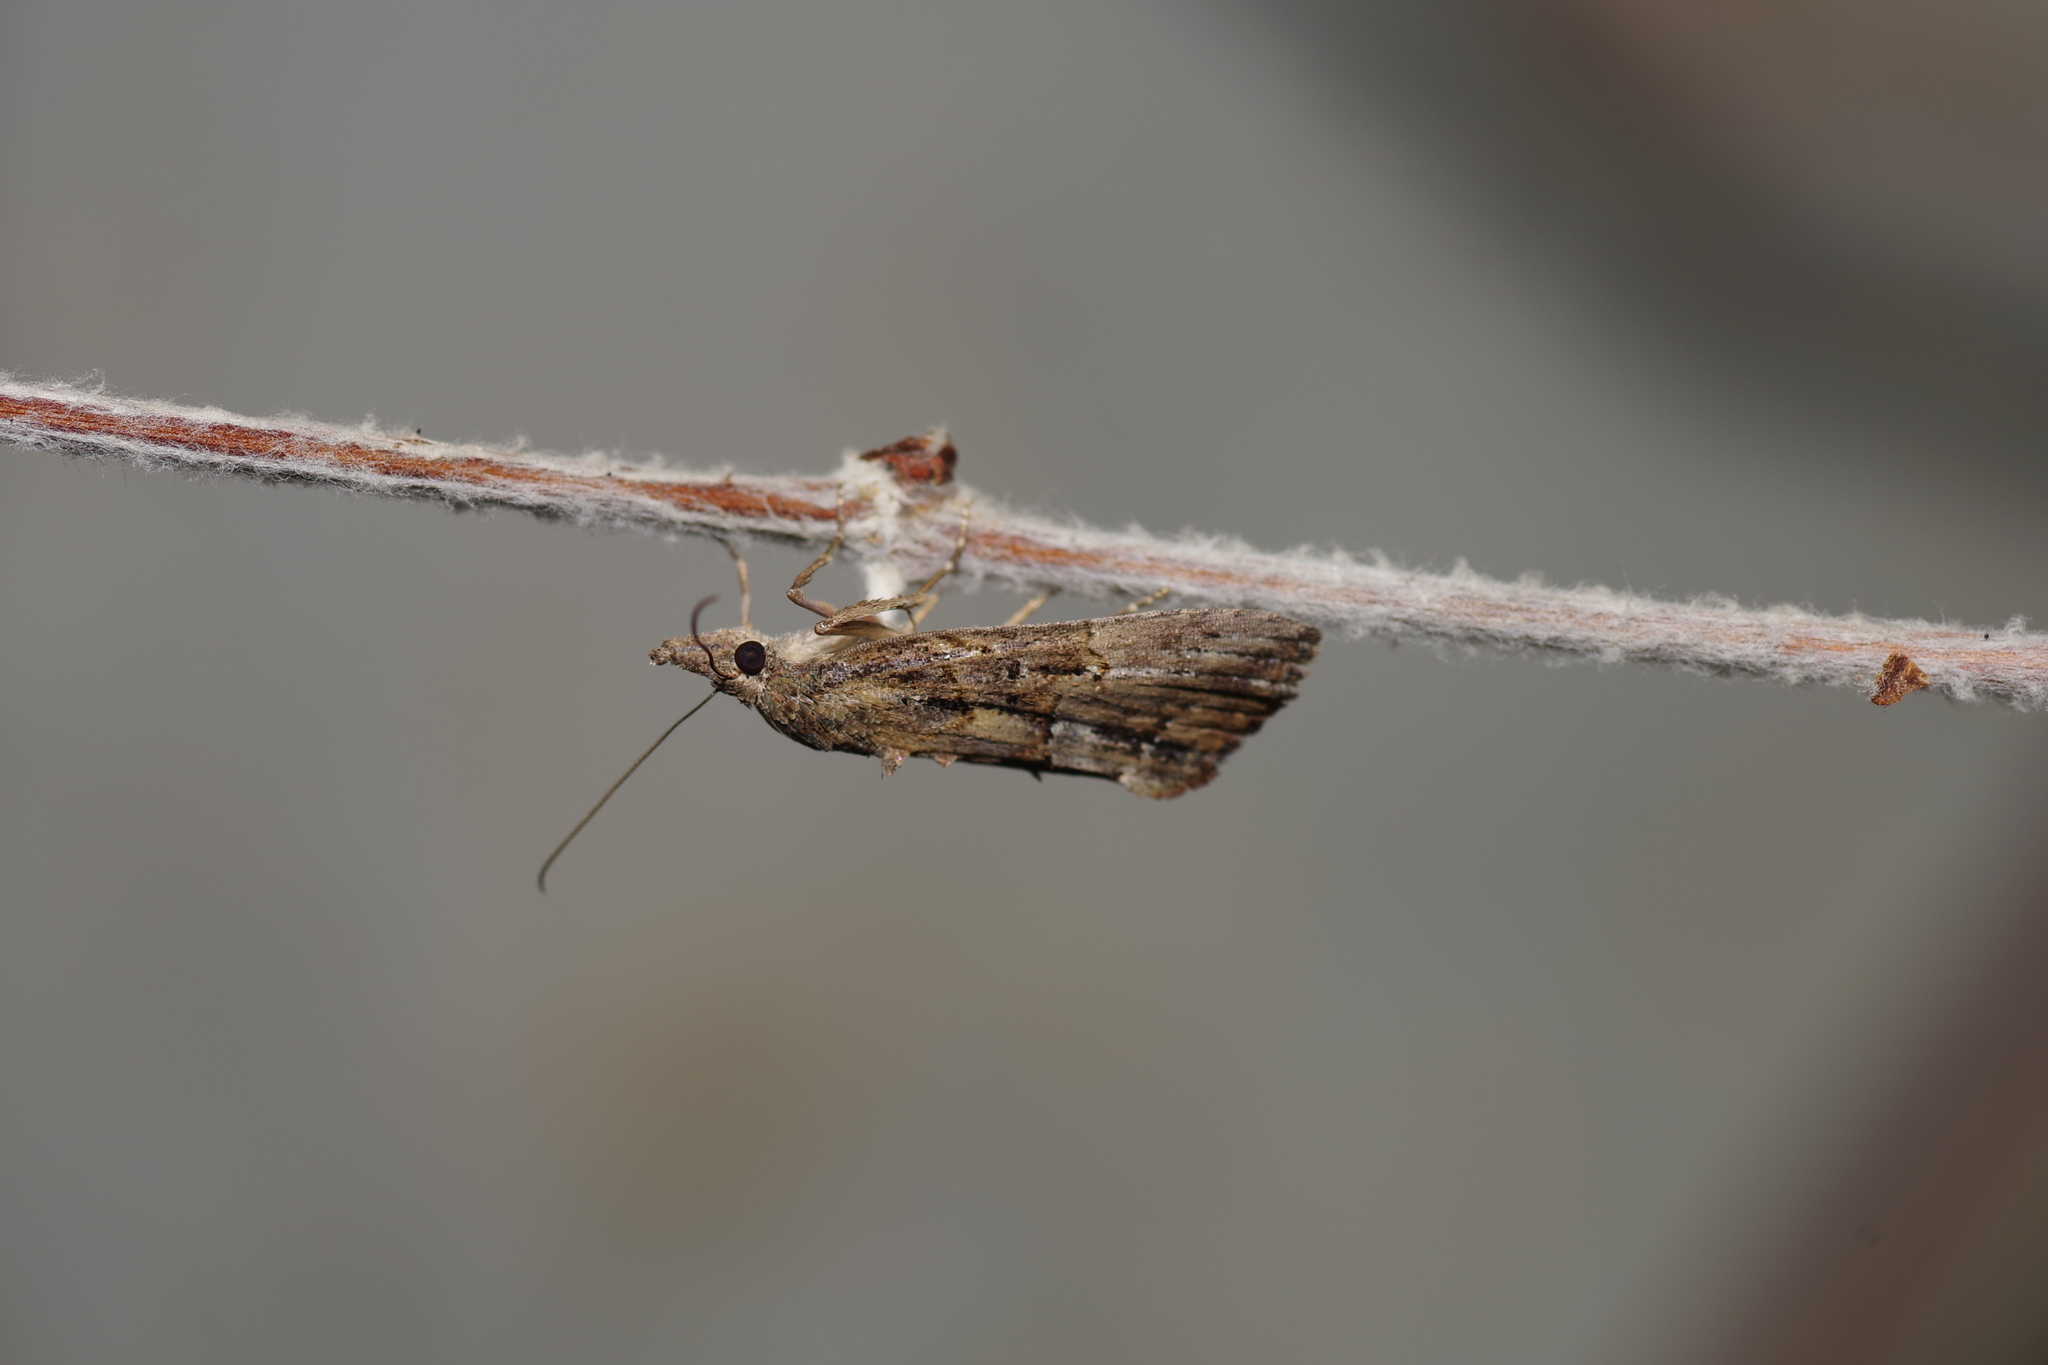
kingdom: Animalia
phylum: Arthropoda
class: Insecta
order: Lepidoptera
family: Erebidae
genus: Hypena
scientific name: Hypena scabra
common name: Green cloverworm
